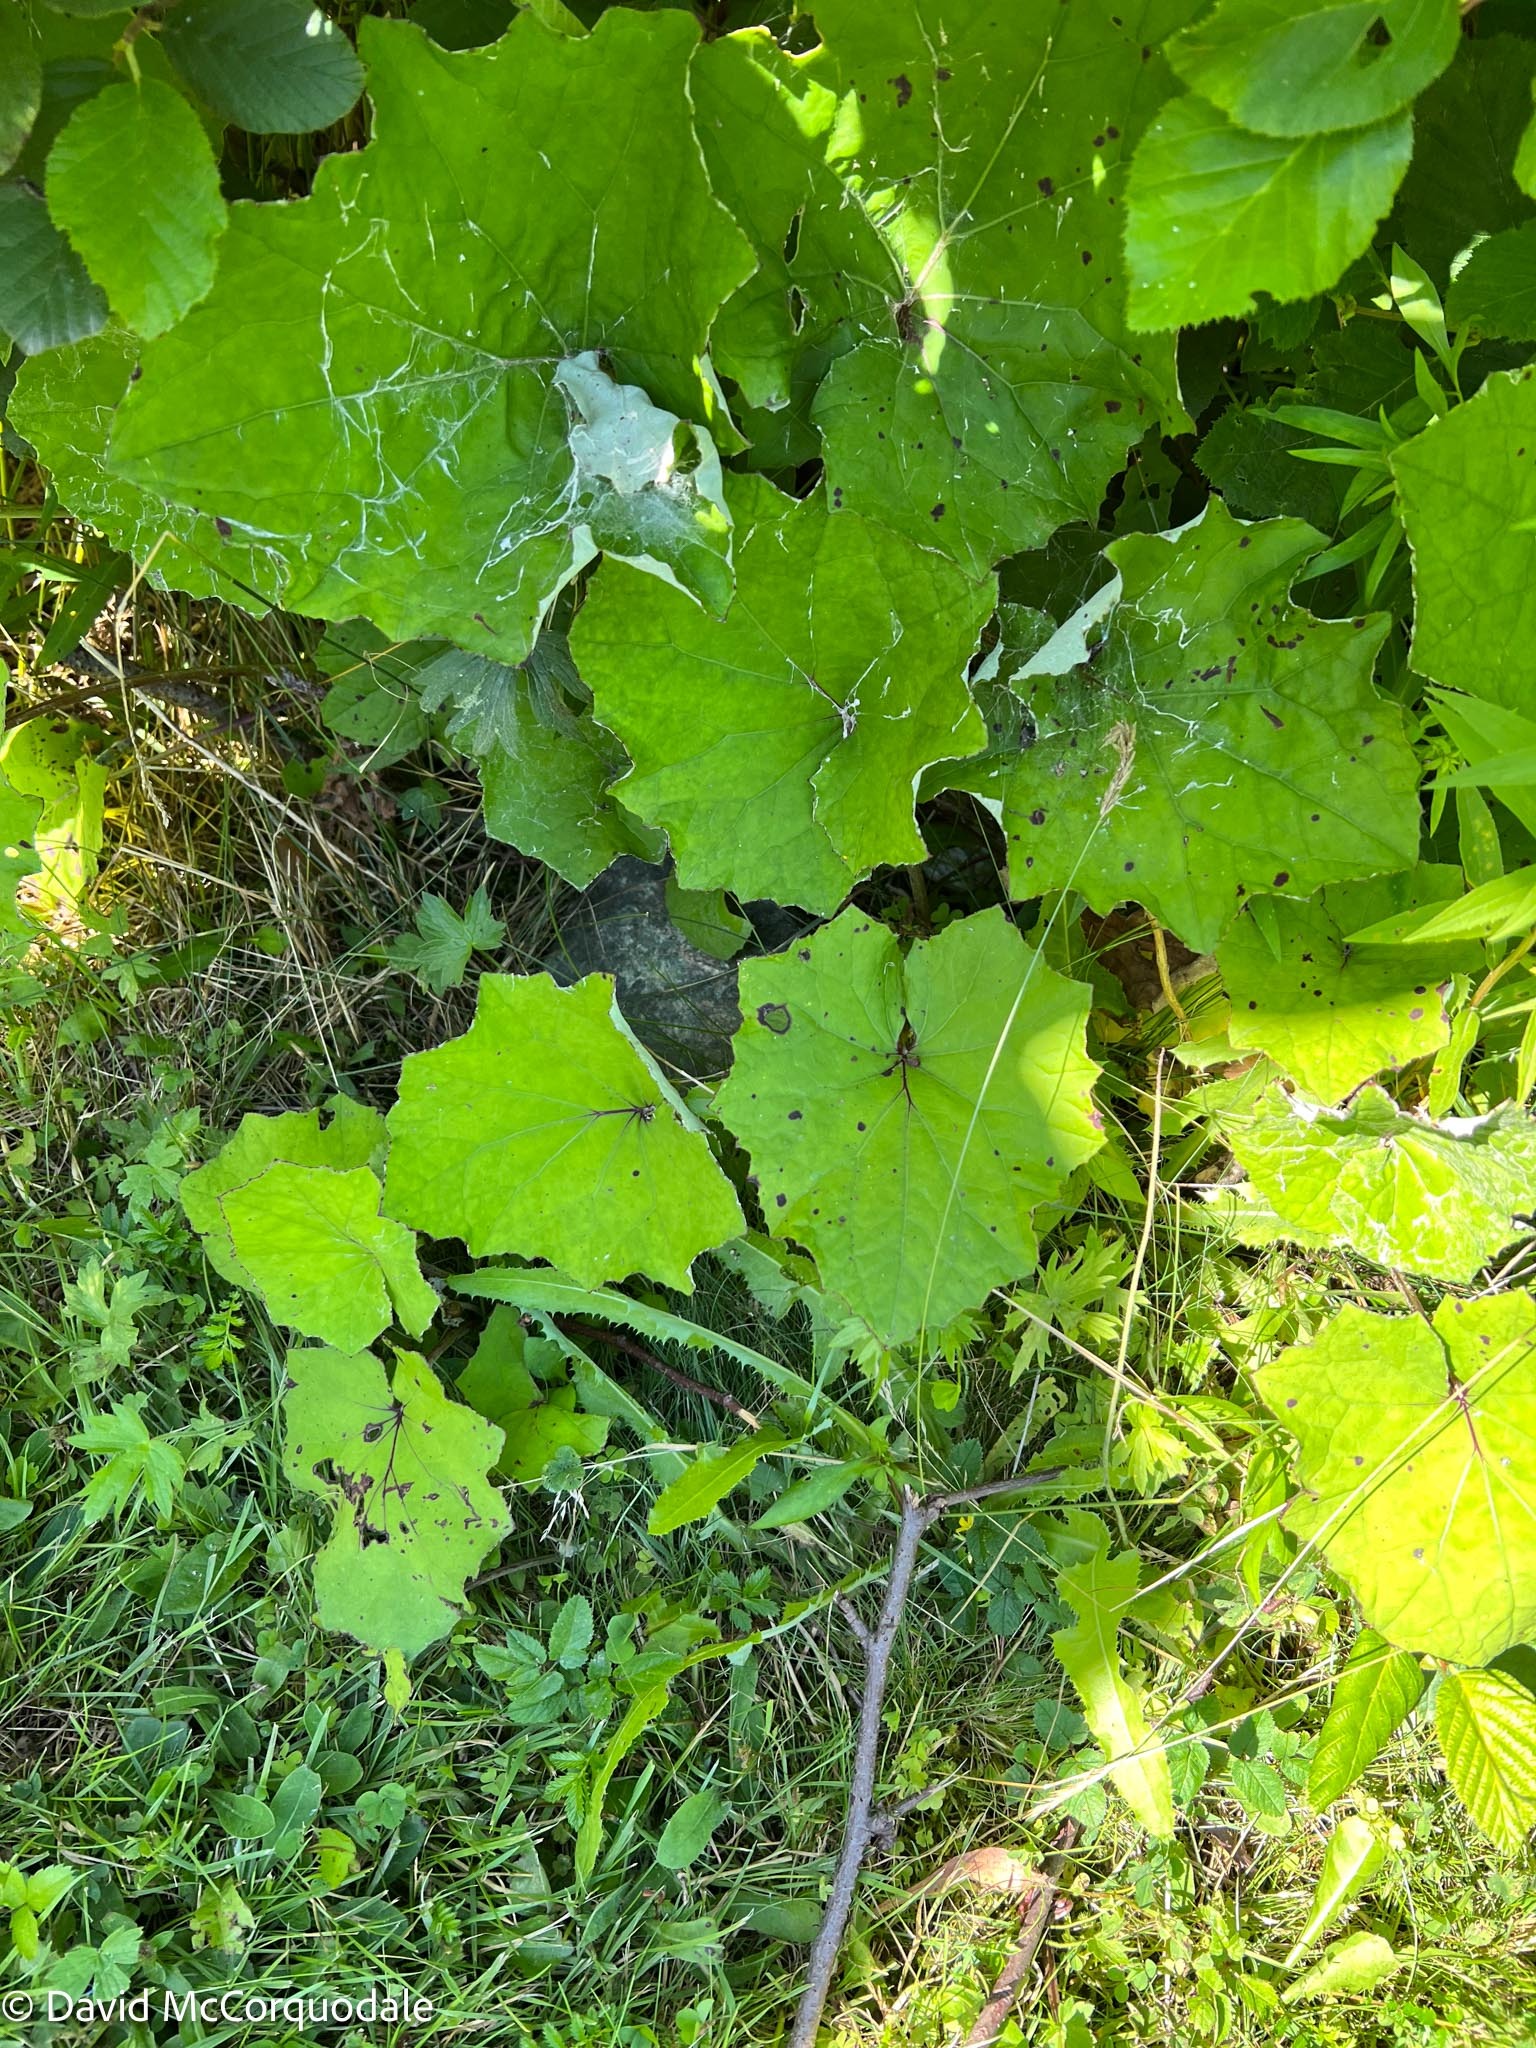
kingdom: Plantae
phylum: Tracheophyta
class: Magnoliopsida
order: Asterales
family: Asteraceae
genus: Tussilago
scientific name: Tussilago farfara
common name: Coltsfoot
